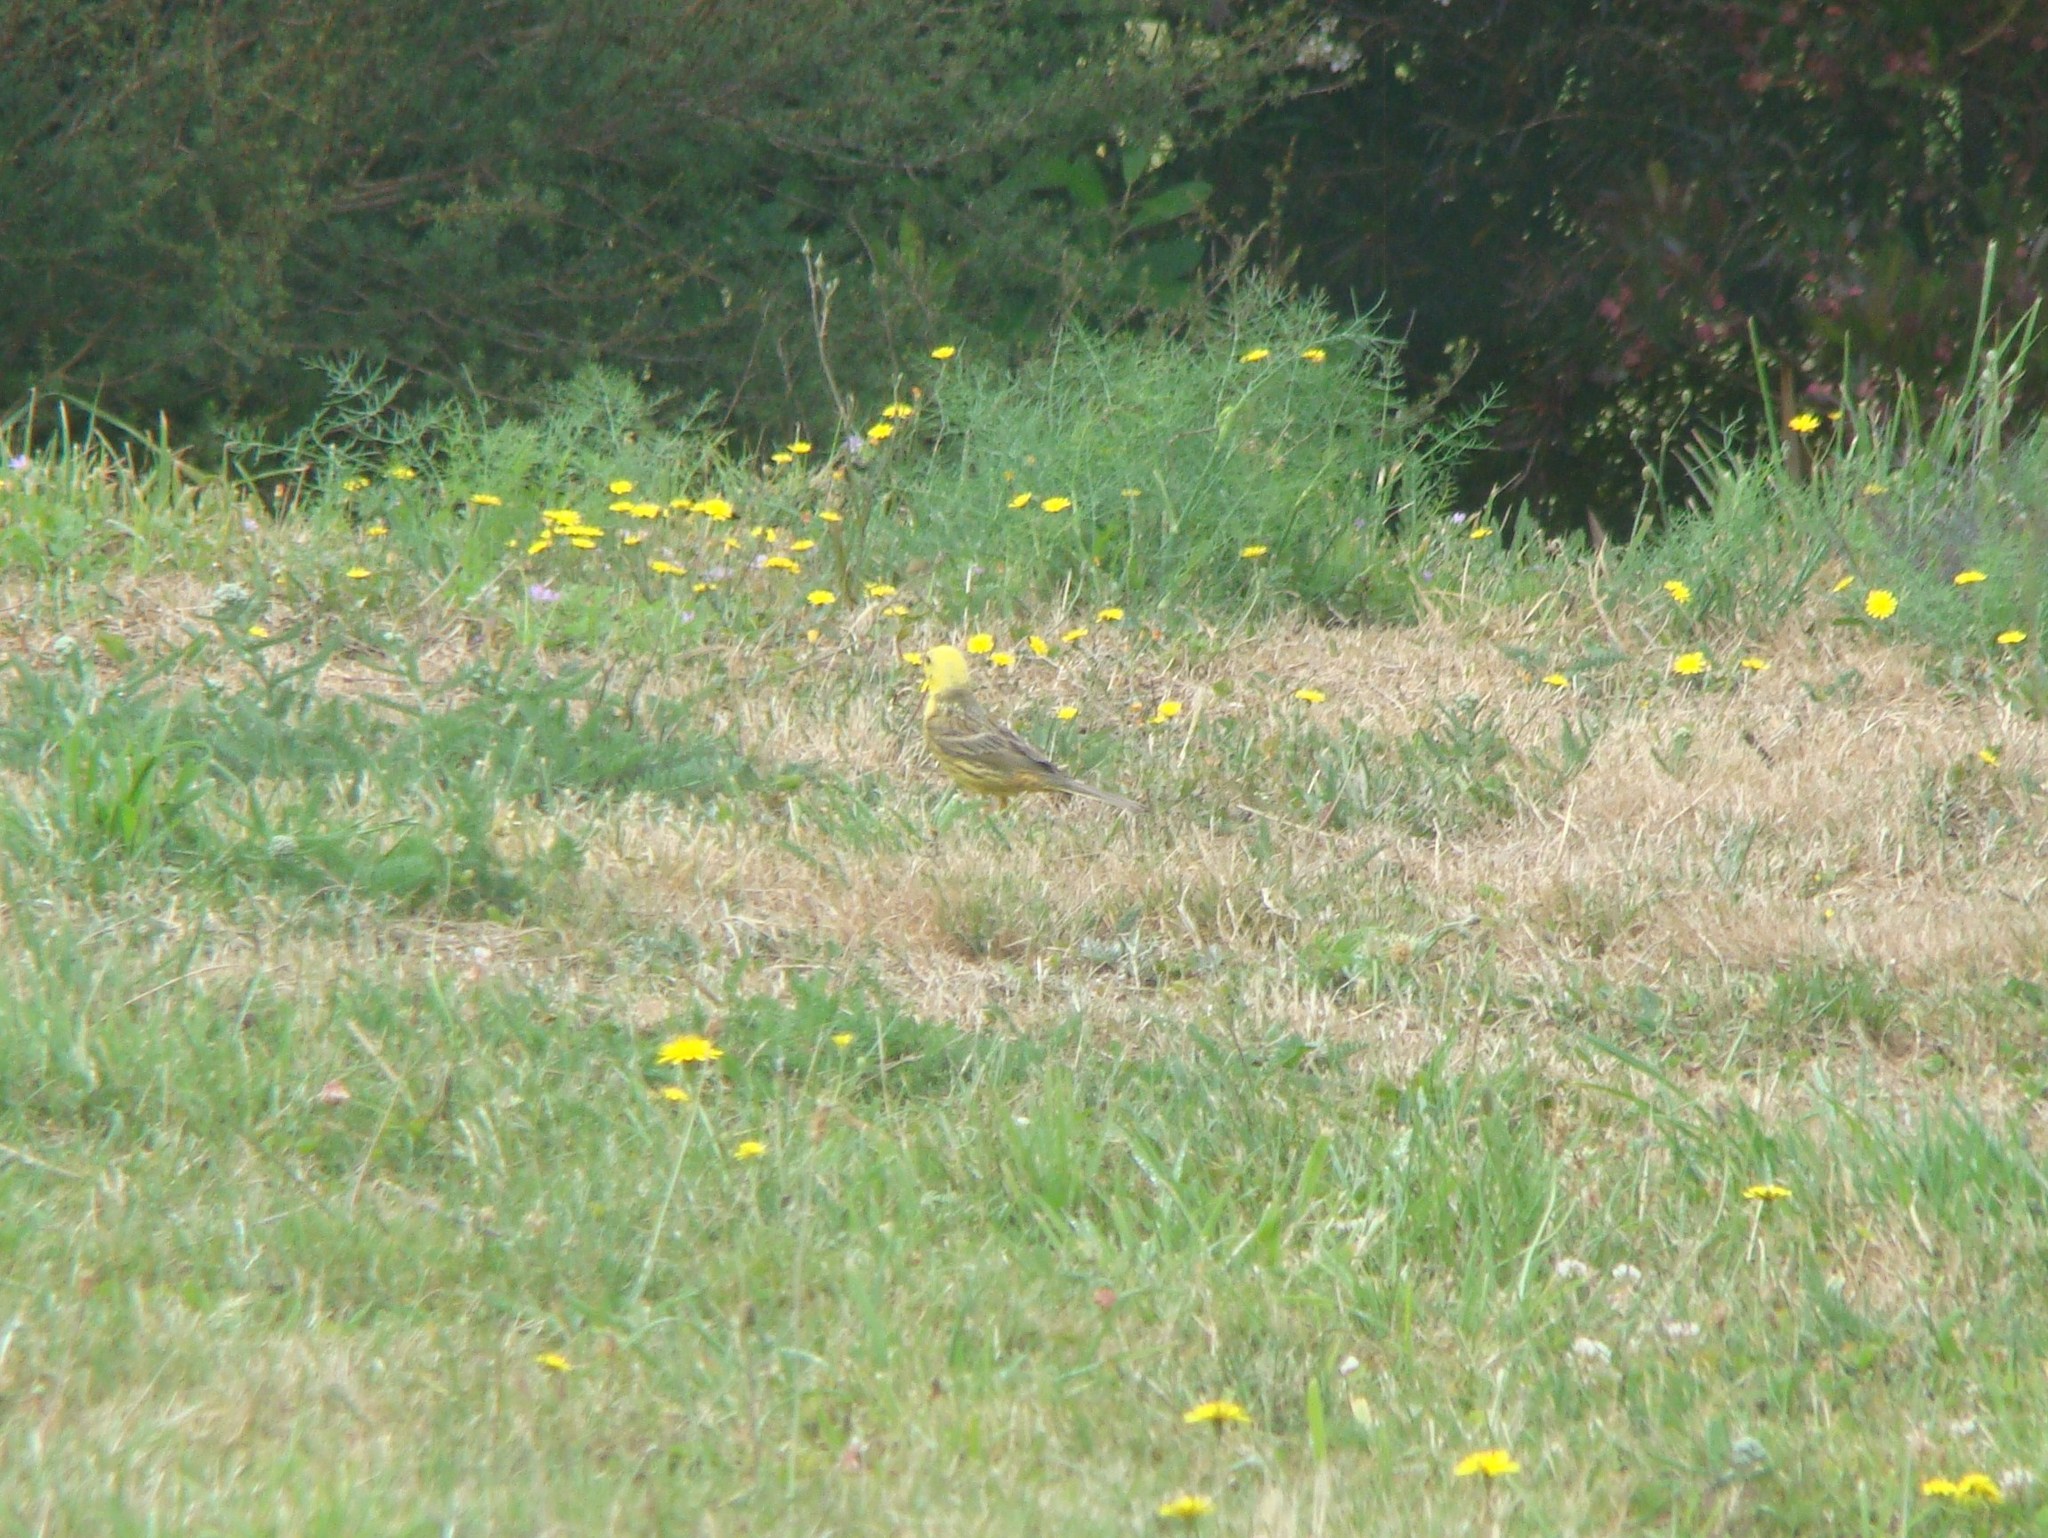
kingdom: Animalia
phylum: Chordata
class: Aves
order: Passeriformes
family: Emberizidae
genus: Emberiza
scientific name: Emberiza citrinella
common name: Yellowhammer
